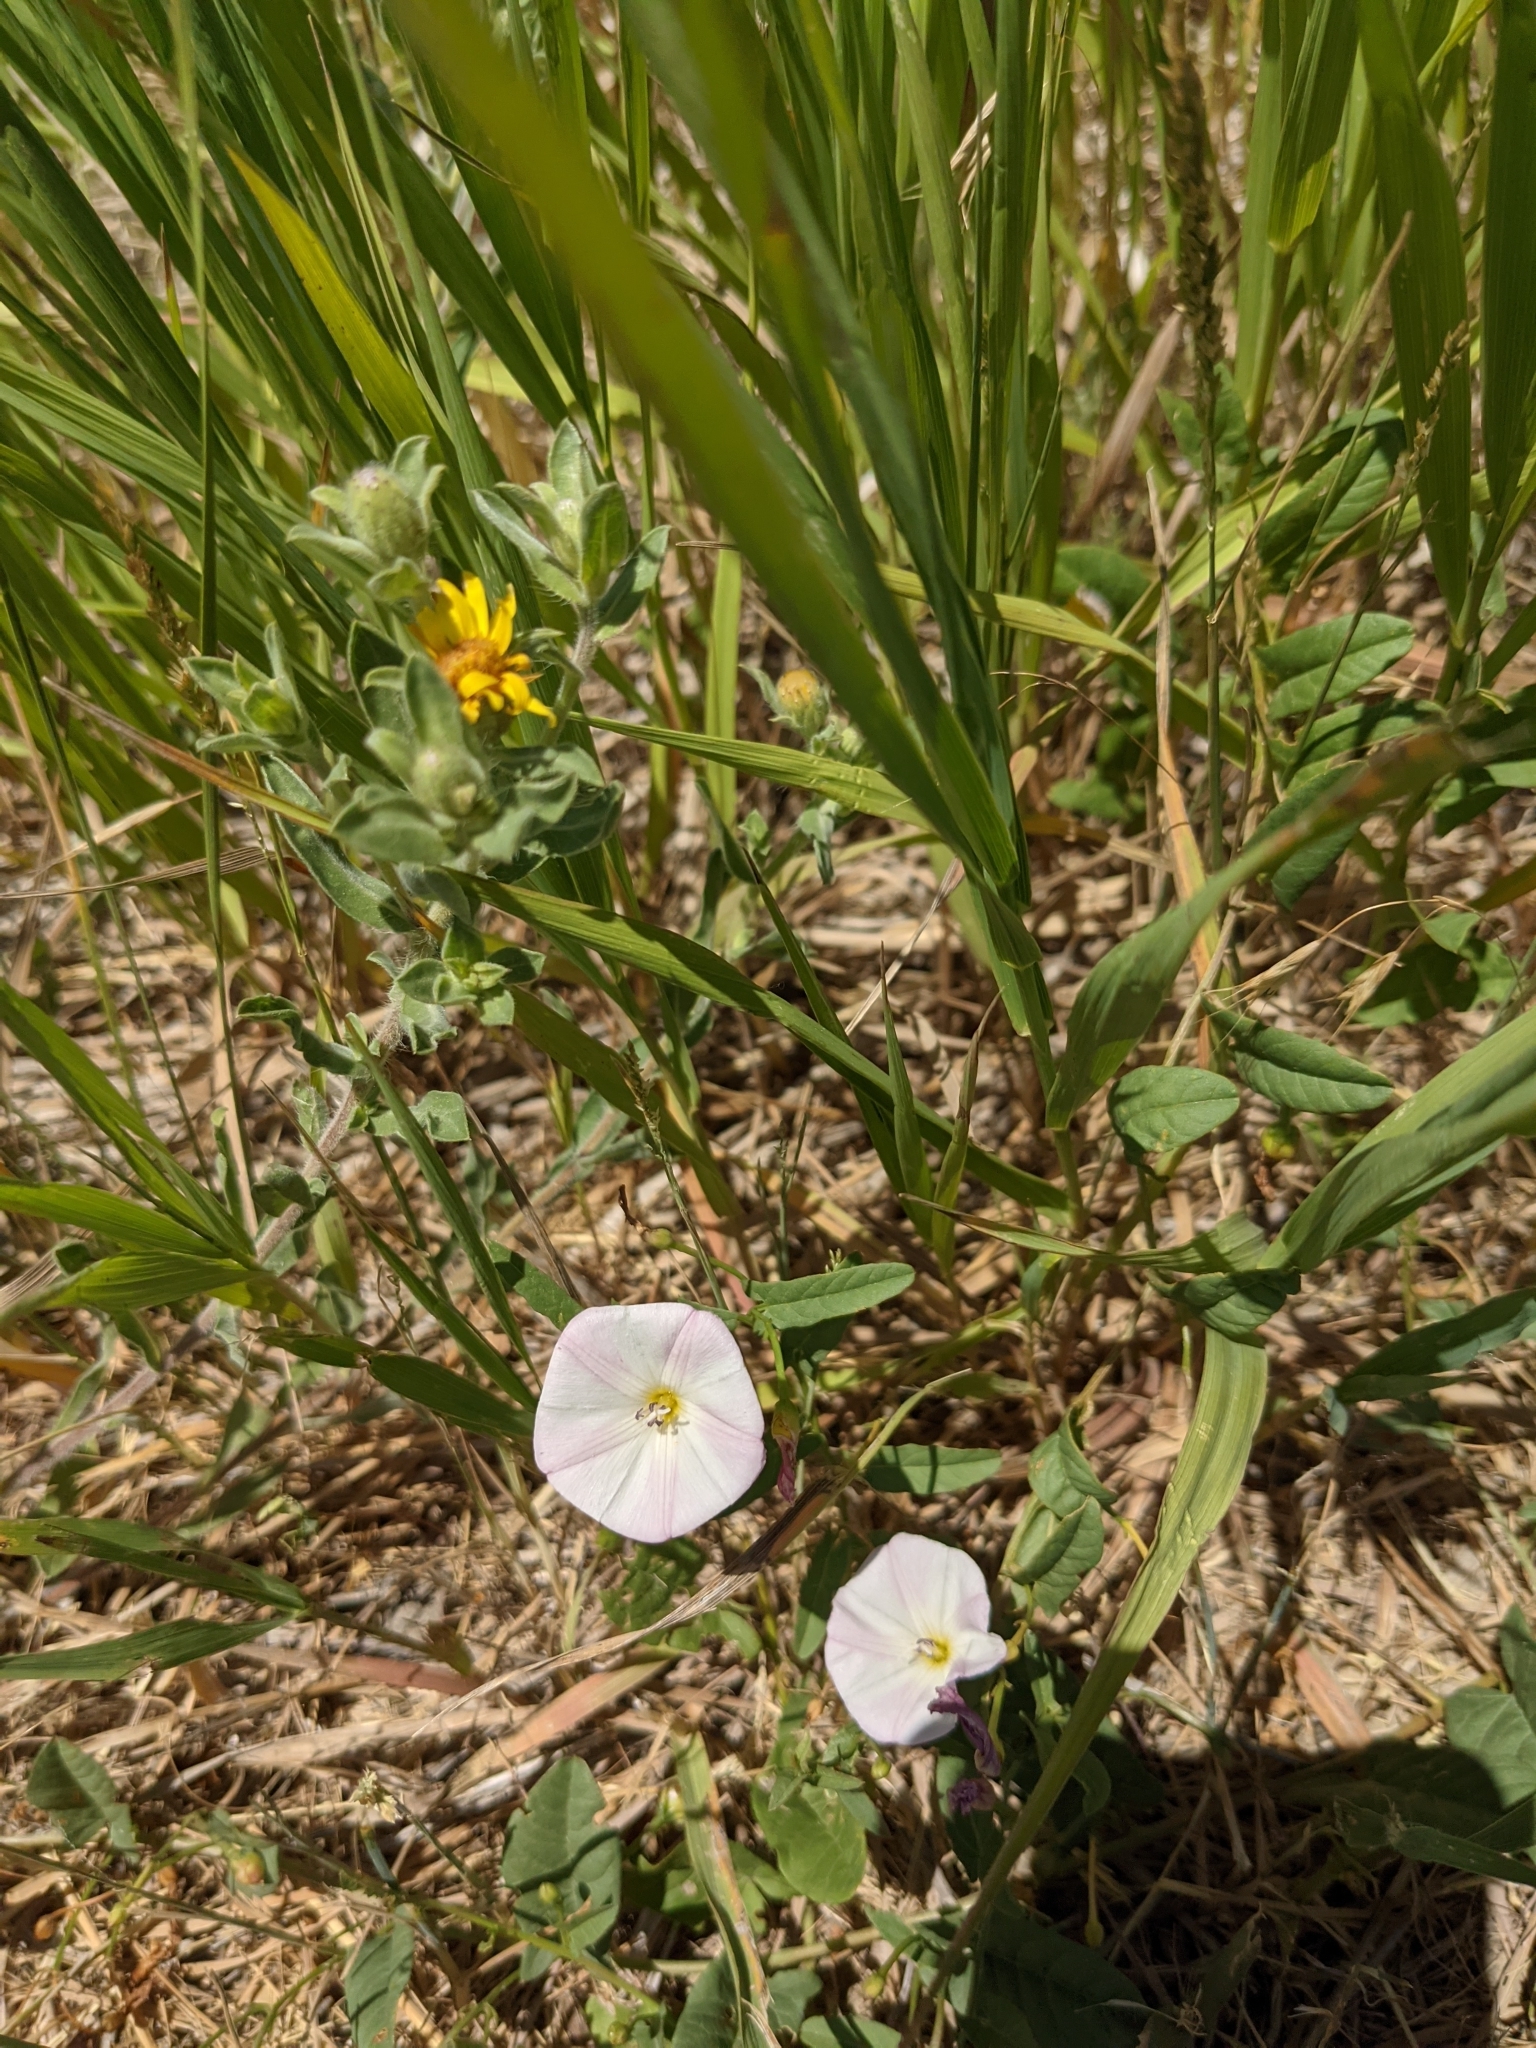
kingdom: Plantae
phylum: Tracheophyta
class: Magnoliopsida
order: Solanales
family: Convolvulaceae
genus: Convolvulus
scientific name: Convolvulus arvensis
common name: Field bindweed
